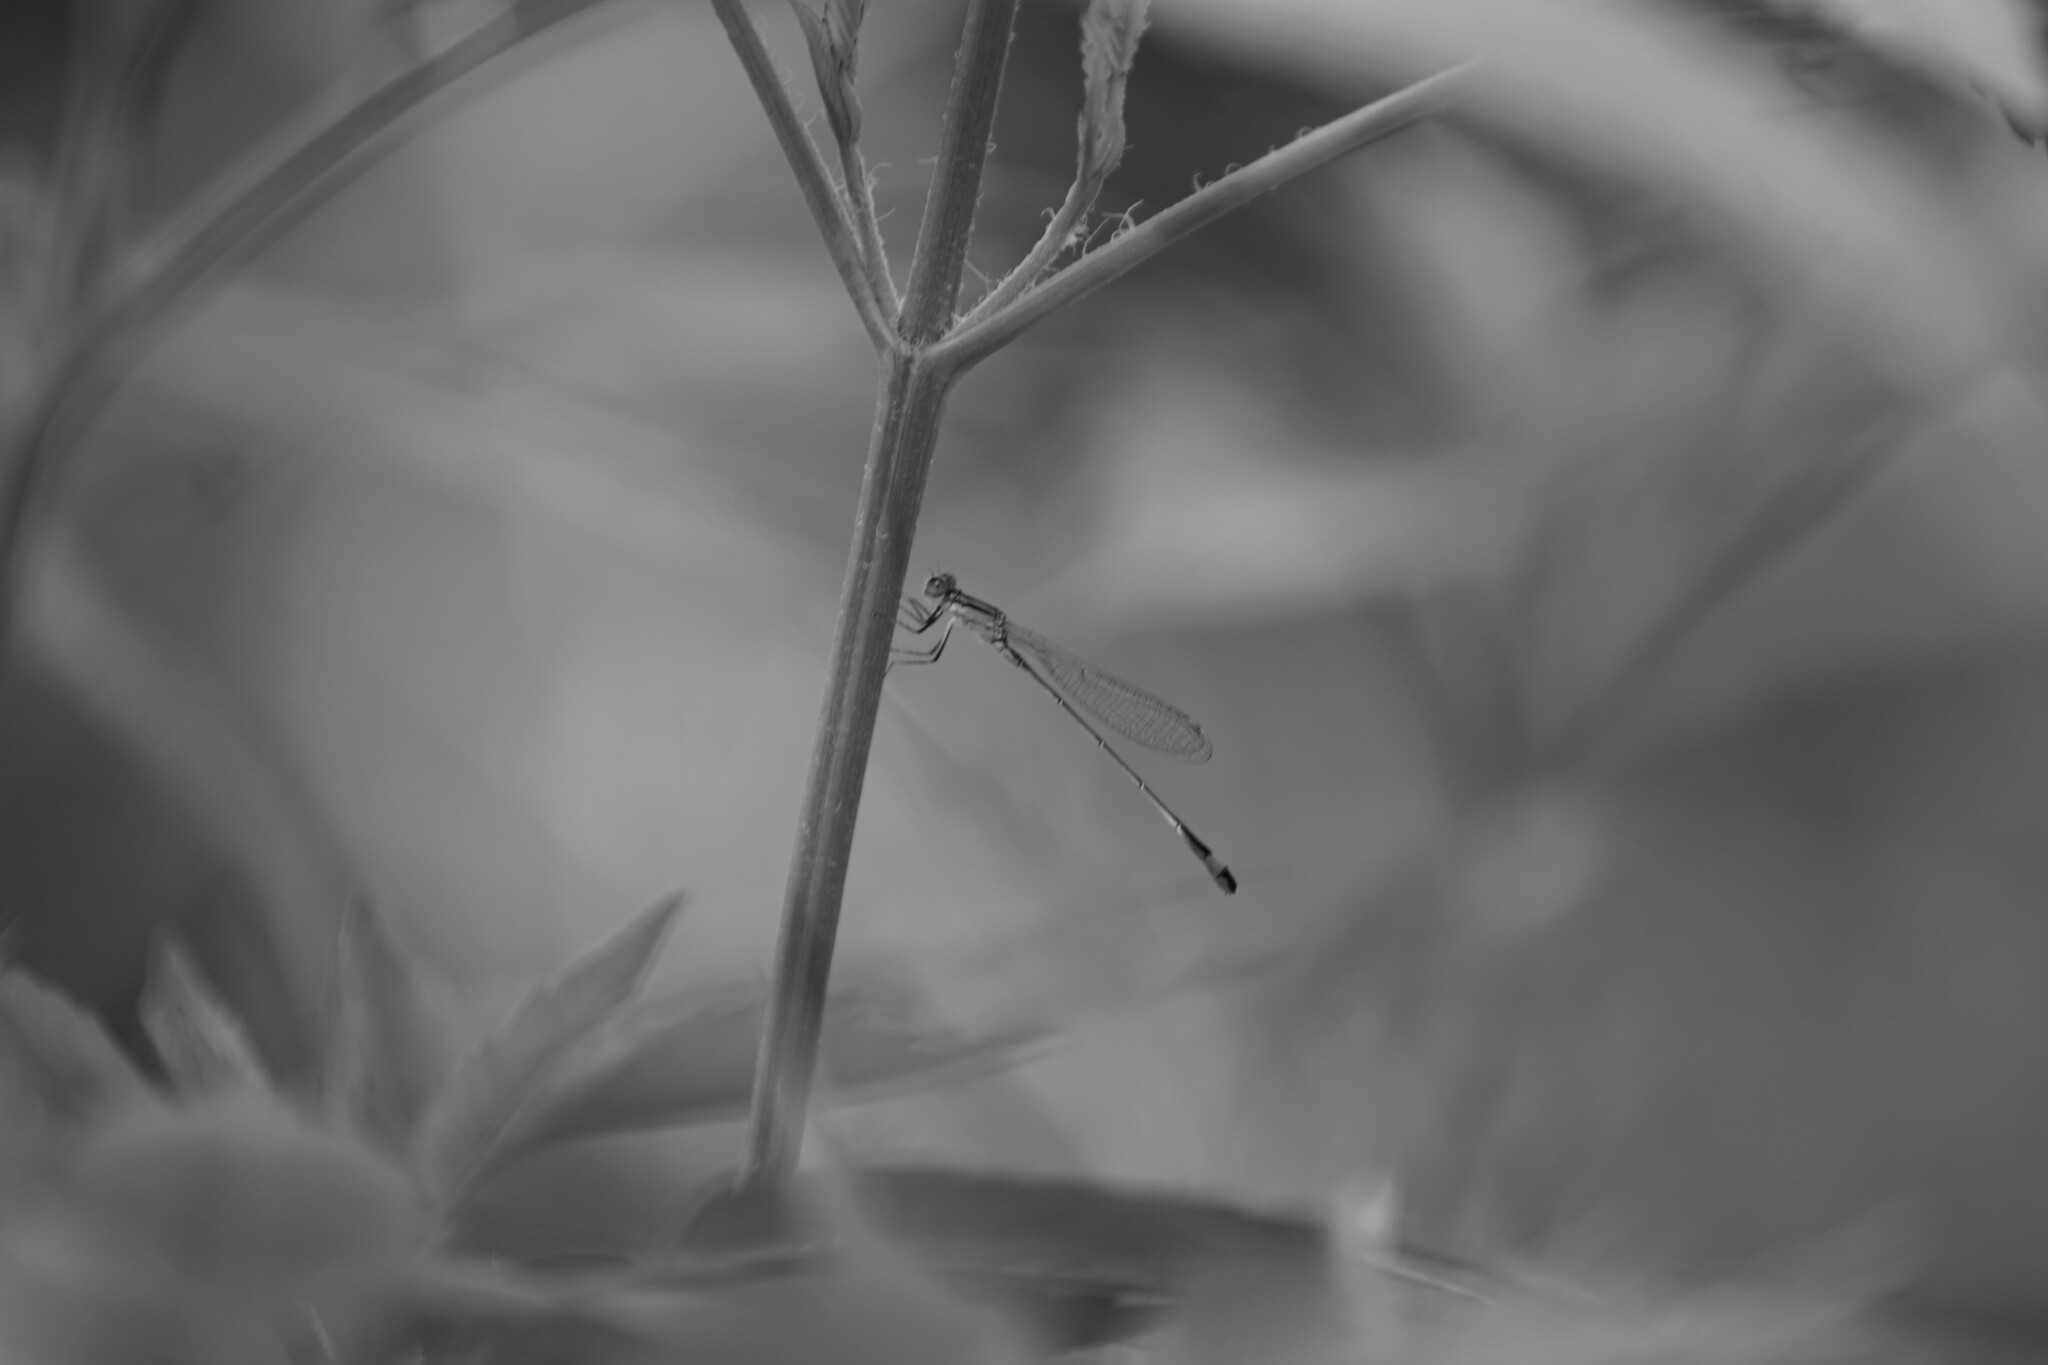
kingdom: Animalia
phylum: Arthropoda
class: Insecta
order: Odonata
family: Coenagrionidae
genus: Ischnura
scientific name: Ischnura elegans
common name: Blue-tailed damselfly
